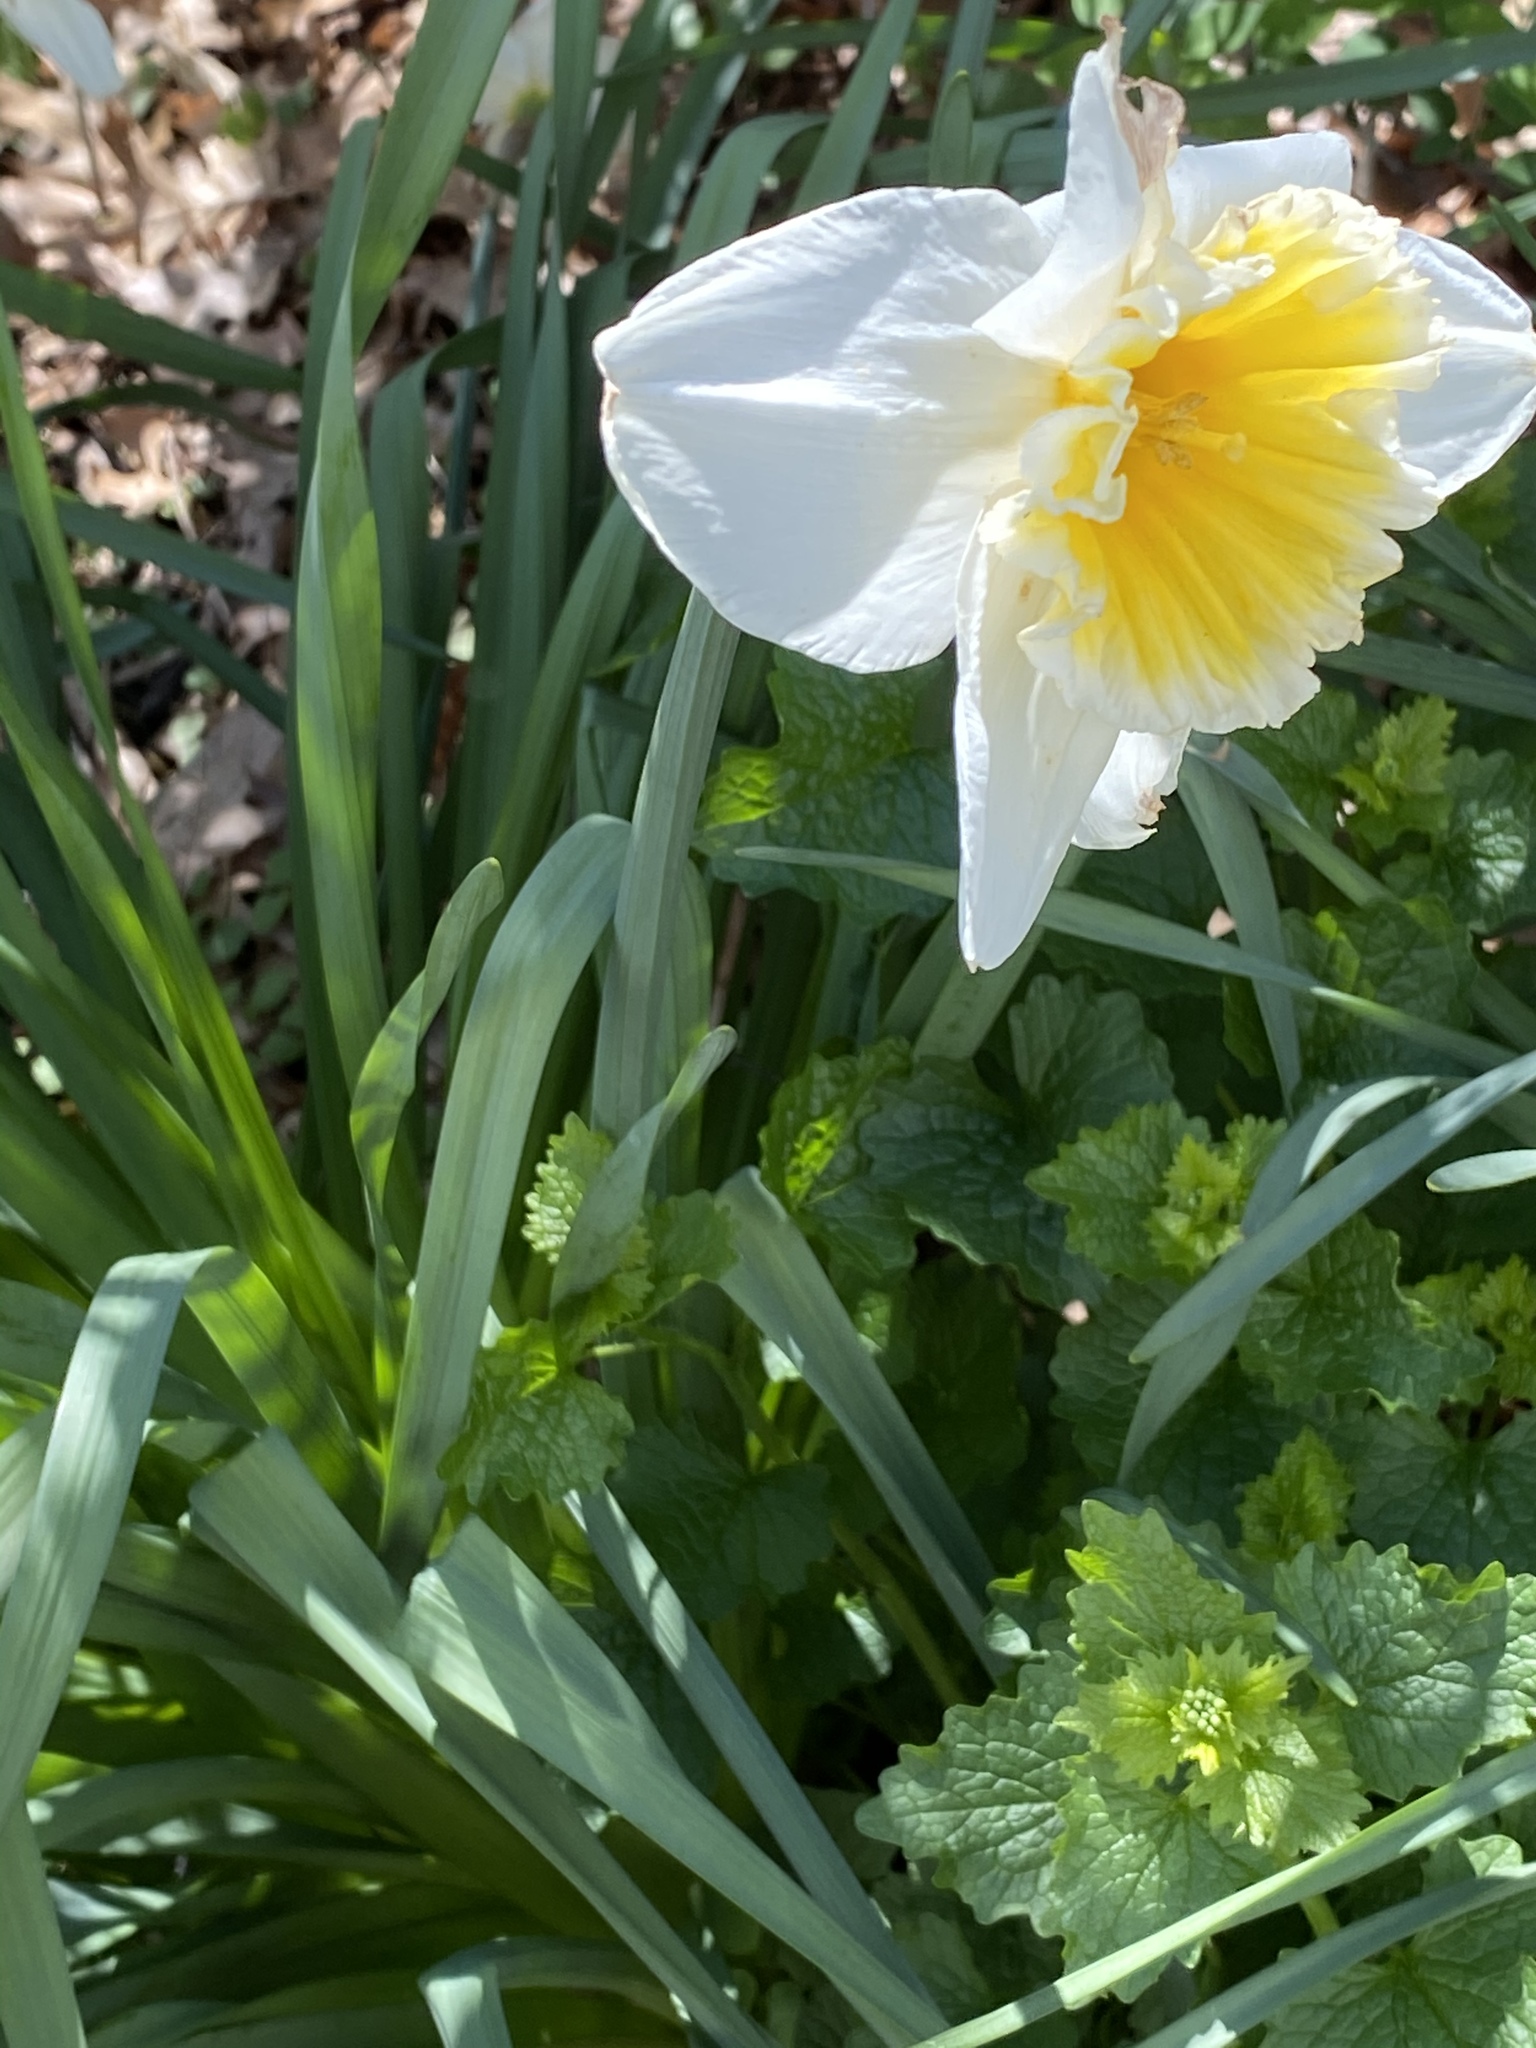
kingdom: Plantae
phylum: Tracheophyta
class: Liliopsida
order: Asparagales
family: Amaryllidaceae
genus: Narcissus
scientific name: Narcissus incomparabilis
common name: Nonesuch daffodil
